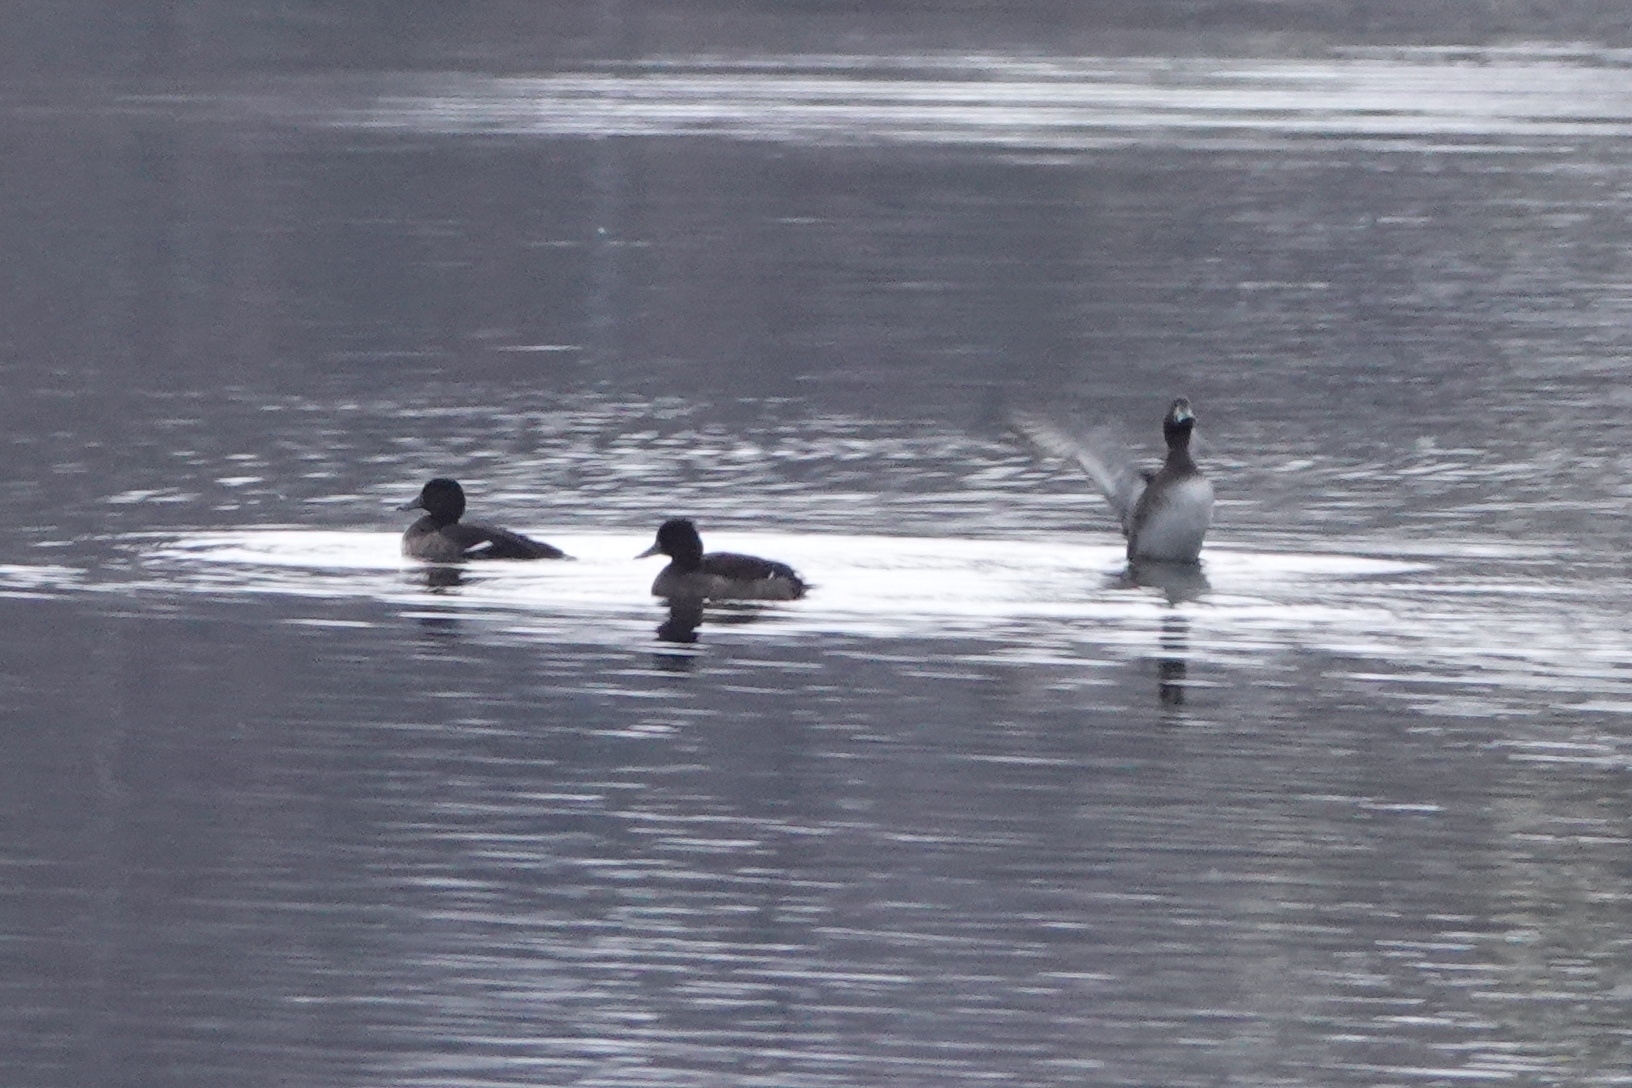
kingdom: Animalia
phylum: Chordata
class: Aves
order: Anseriformes
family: Anatidae
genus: Aythya
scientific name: Aythya fuligula
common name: Tufted duck
